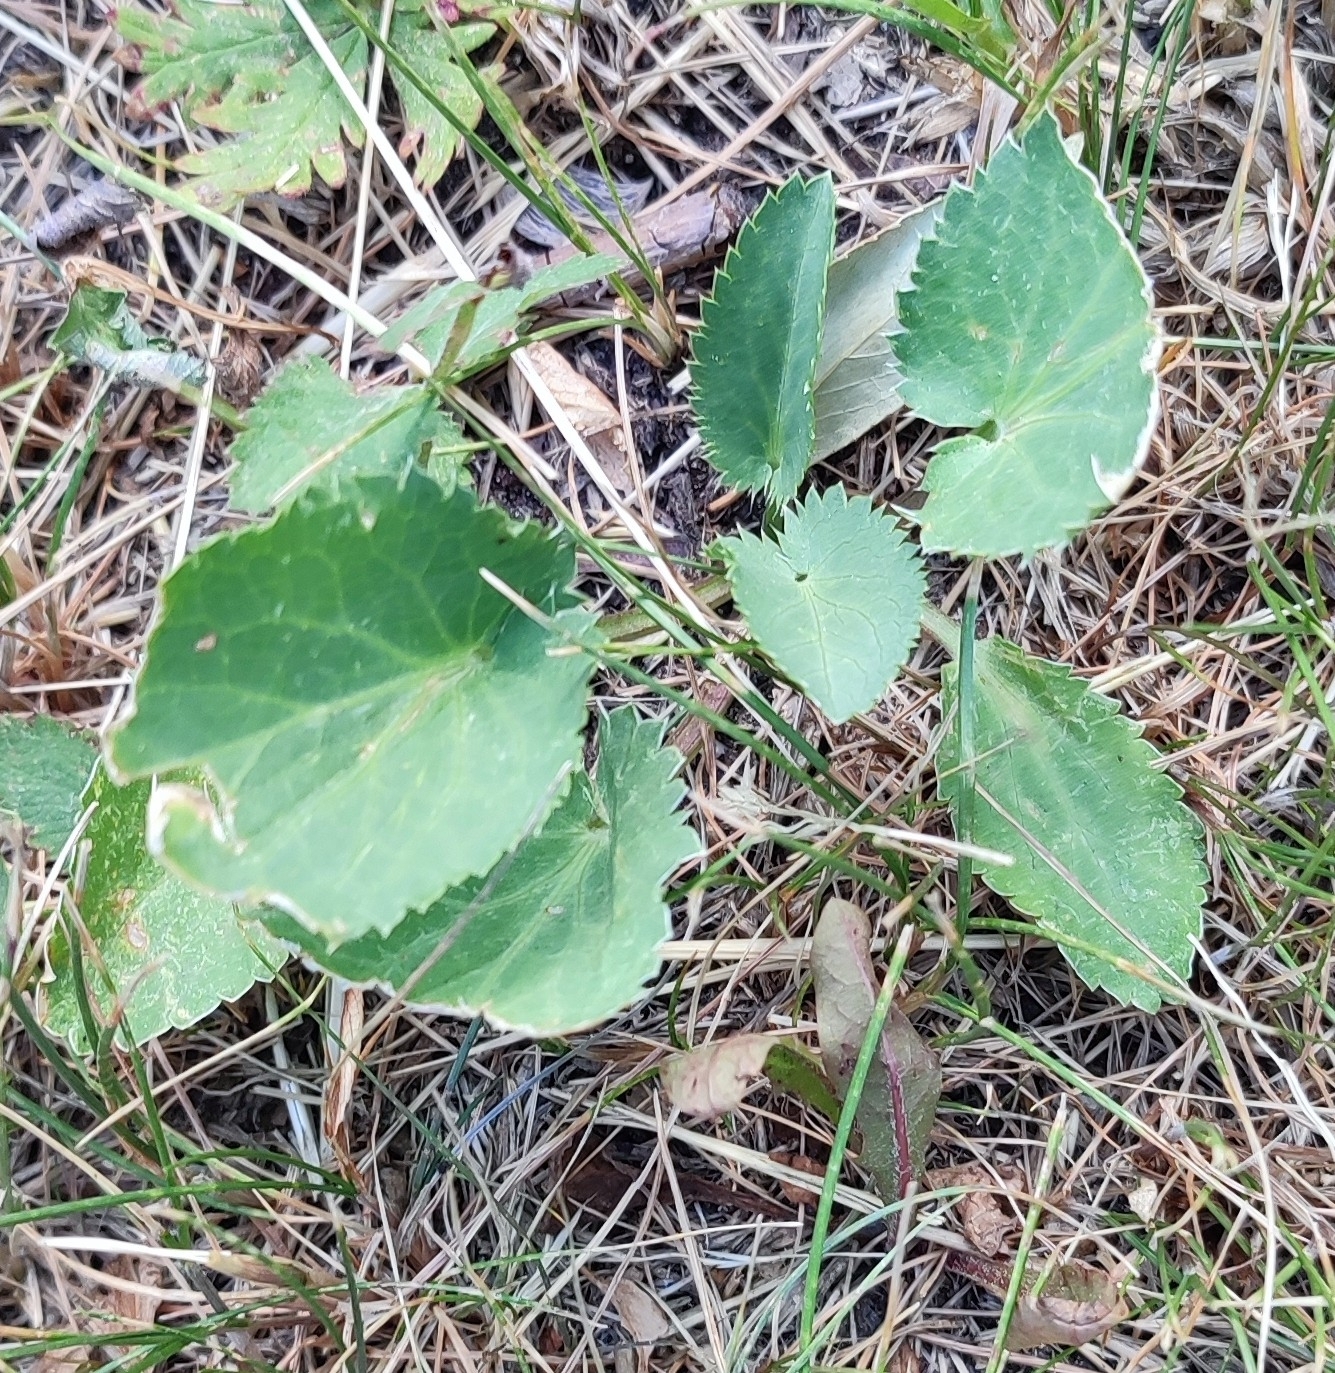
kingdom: Plantae
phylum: Tracheophyta
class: Magnoliopsida
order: Apiales
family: Apiaceae
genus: Eryngium
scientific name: Eryngium planum
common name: Blue eryngo
